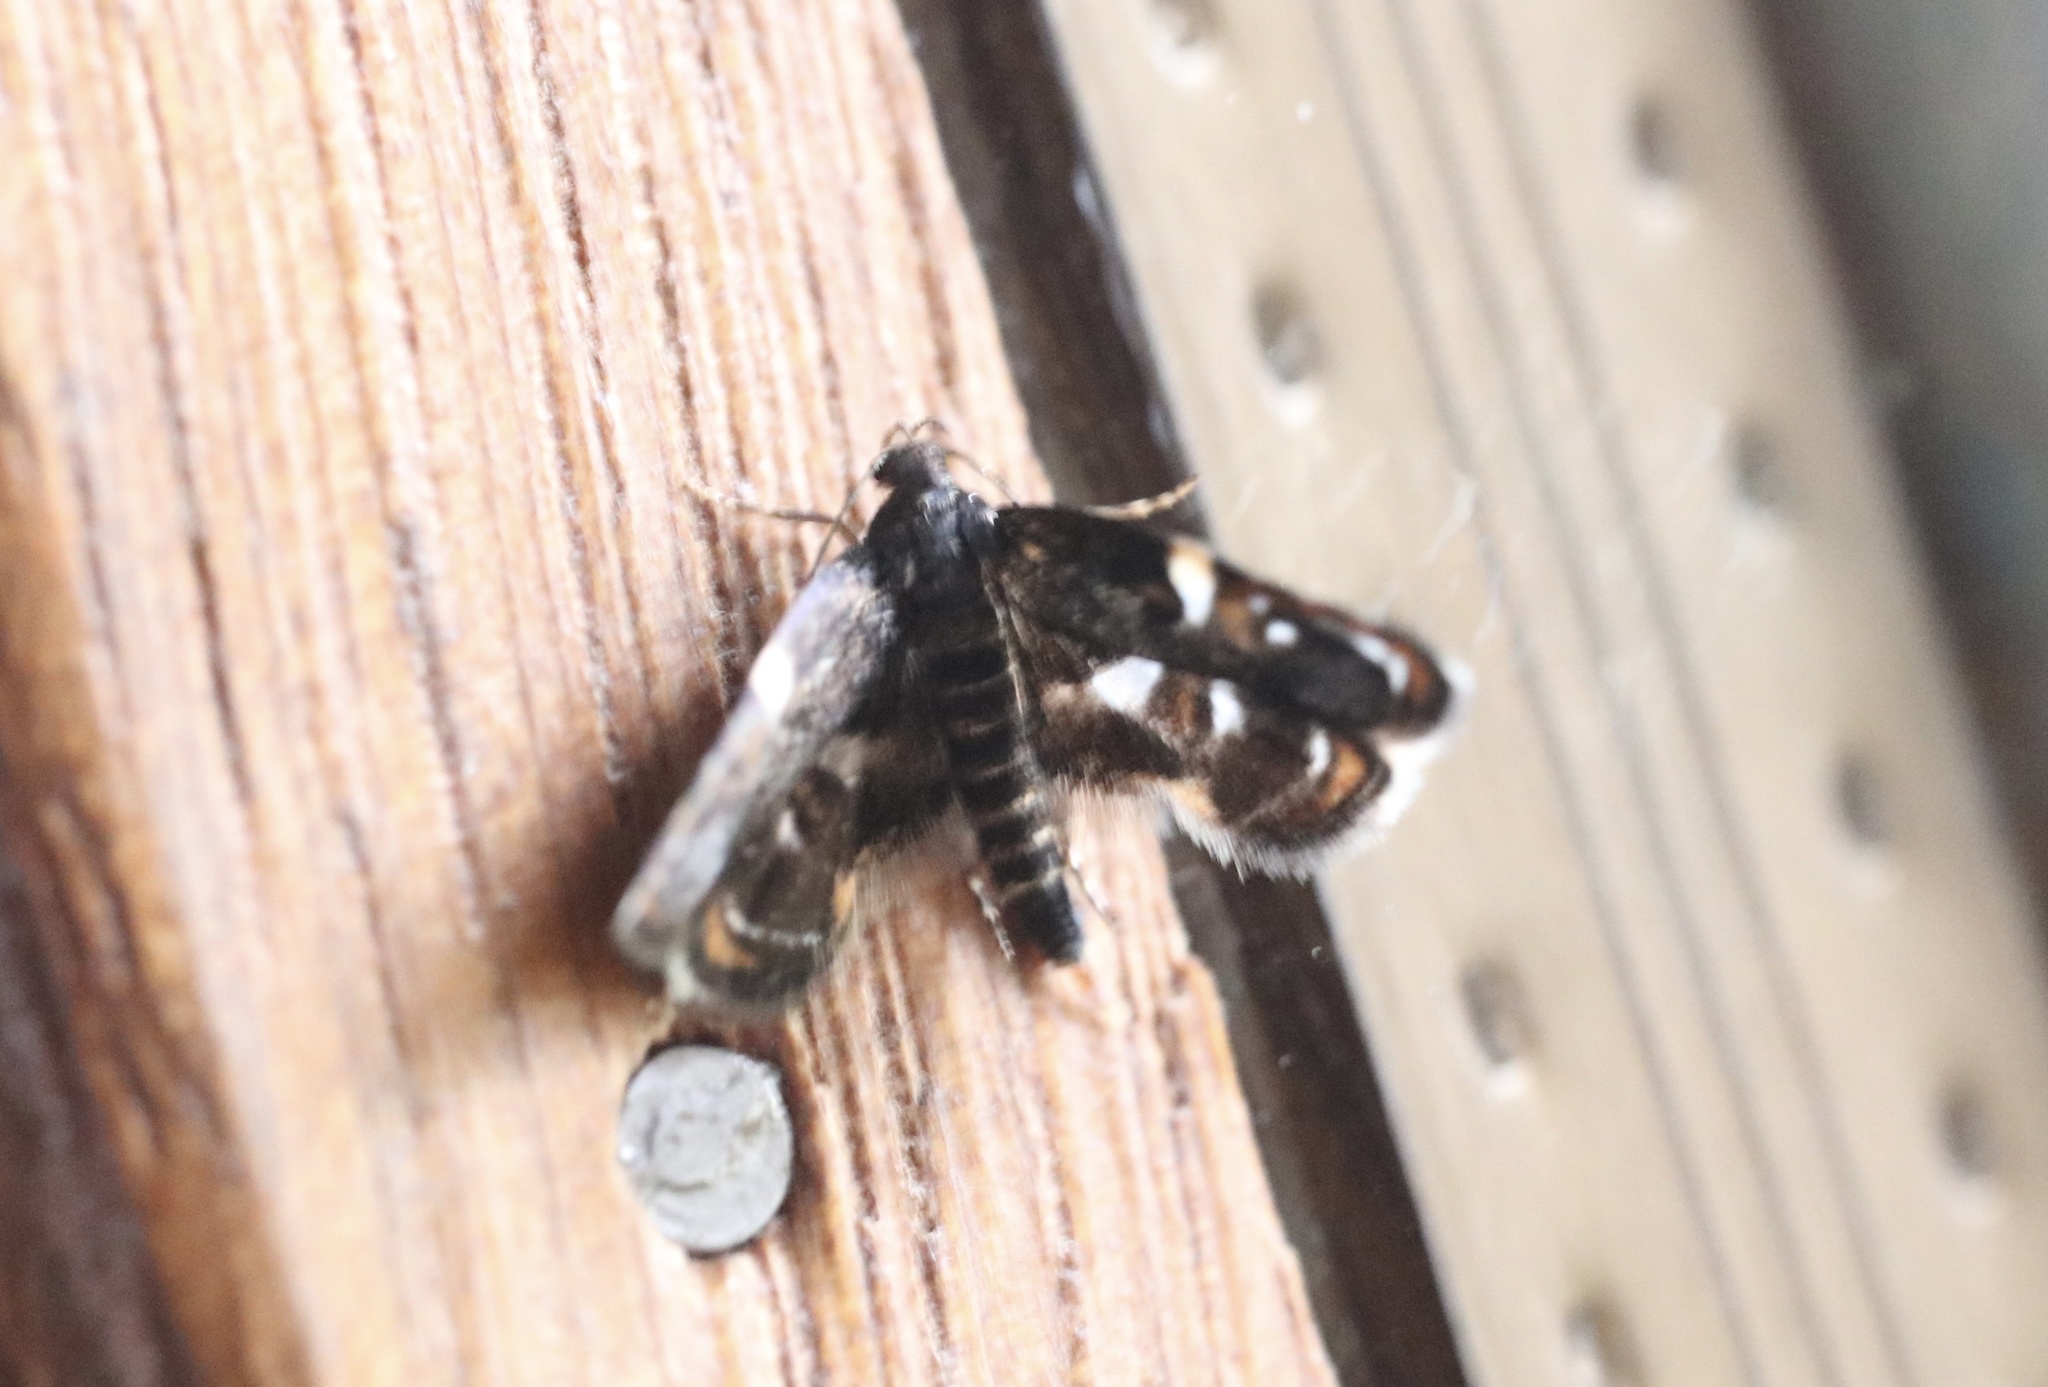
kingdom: Animalia
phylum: Arthropoda
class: Insecta
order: Lepidoptera
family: Oecophoridae
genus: Hyperskeles
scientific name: Hyperskeles choreutidea
